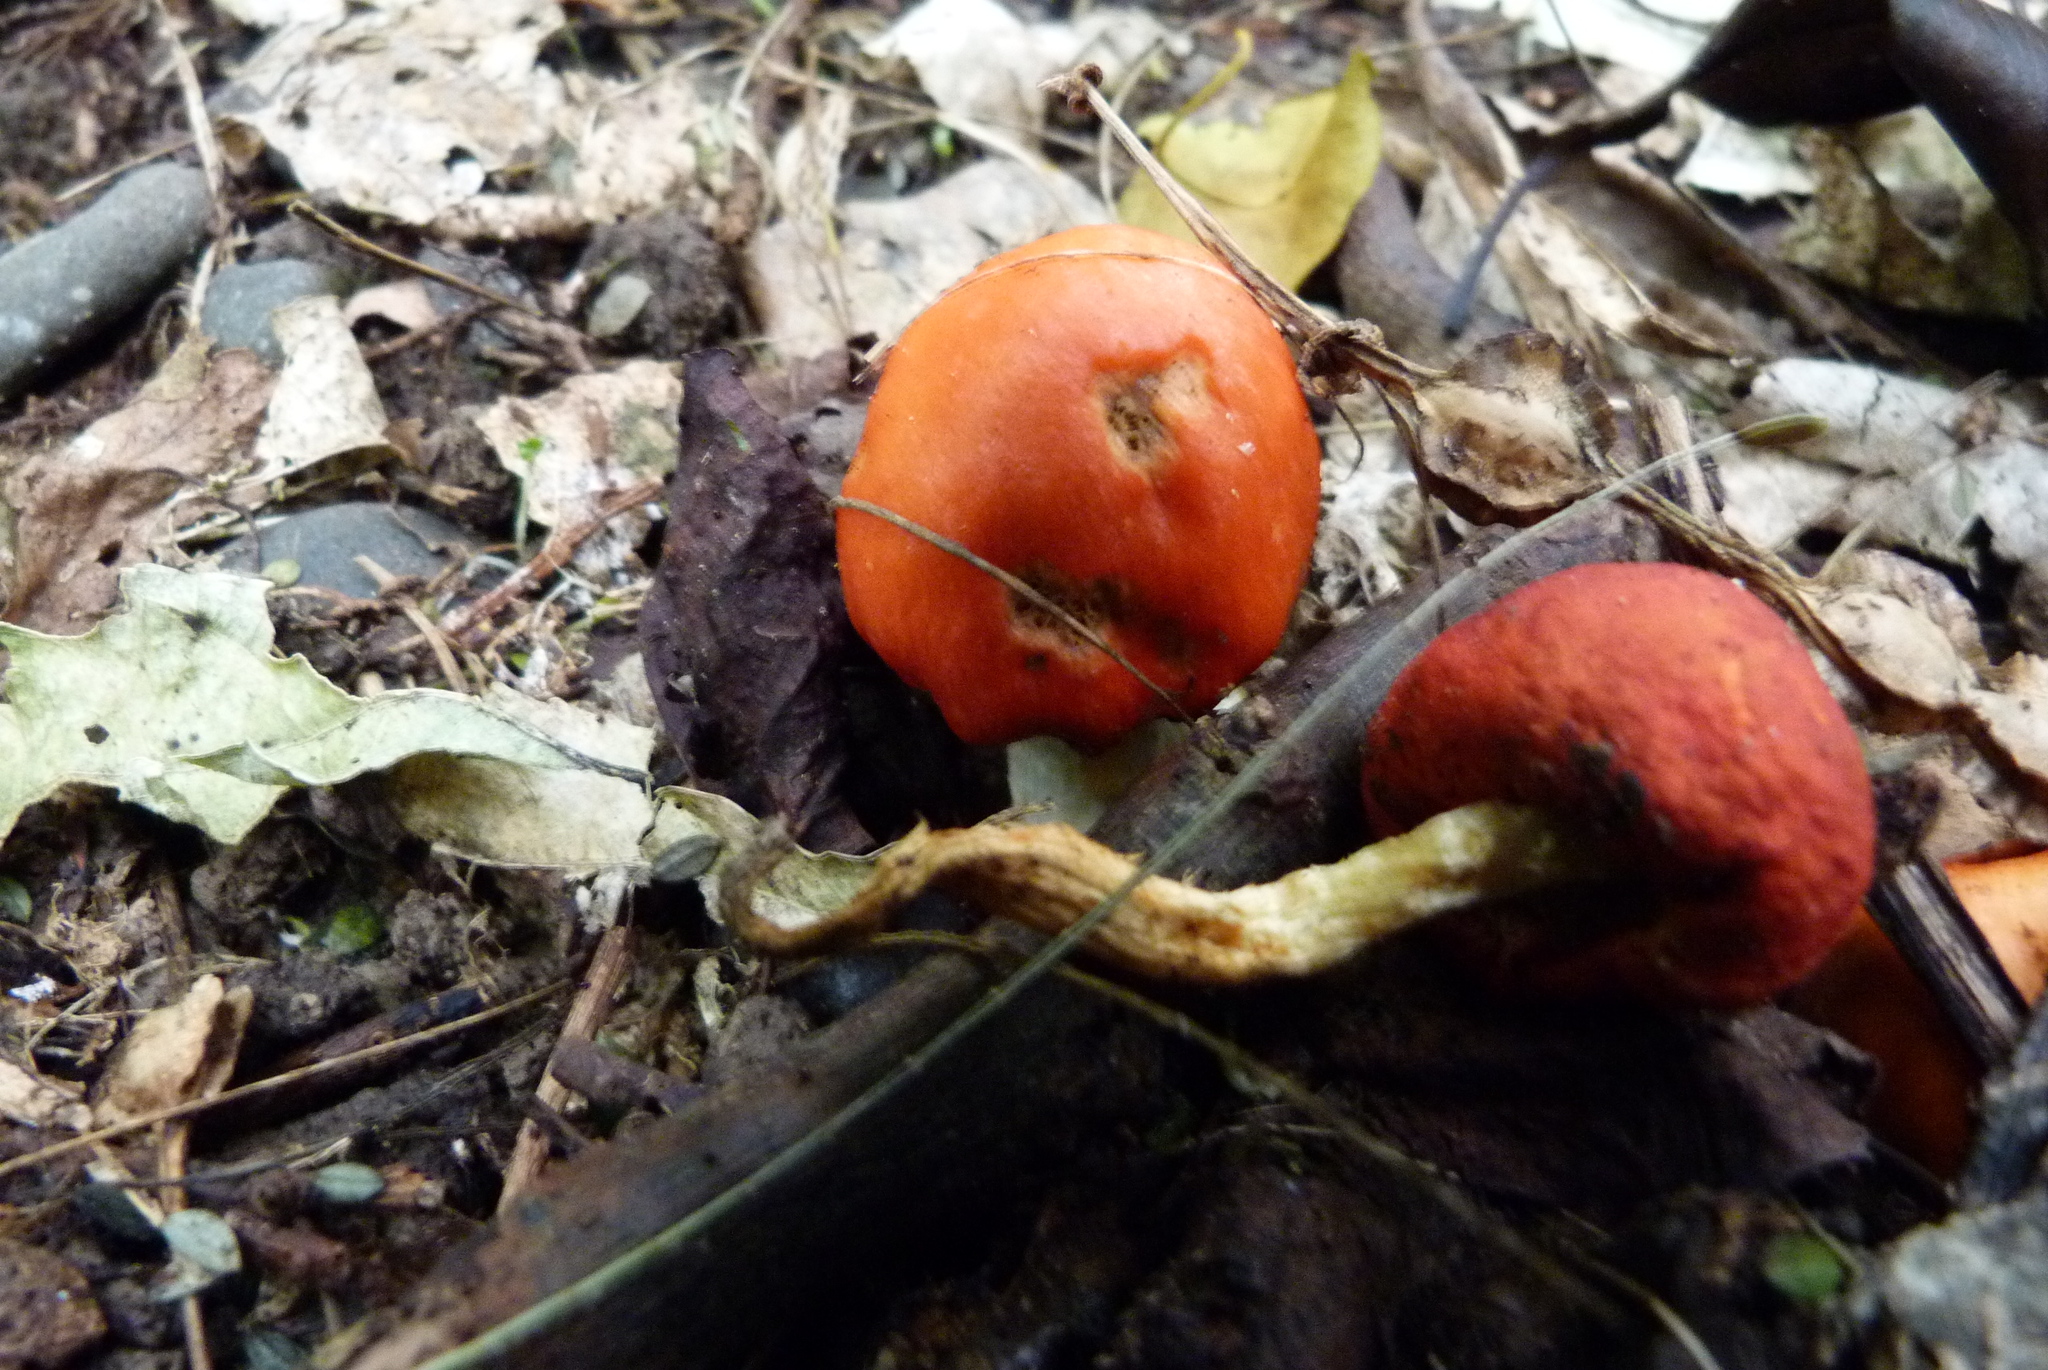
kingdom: Fungi
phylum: Basidiomycota
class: Agaricomycetes
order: Agaricales
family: Strophariaceae
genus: Leratiomyces
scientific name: Leratiomyces erythrocephalus
